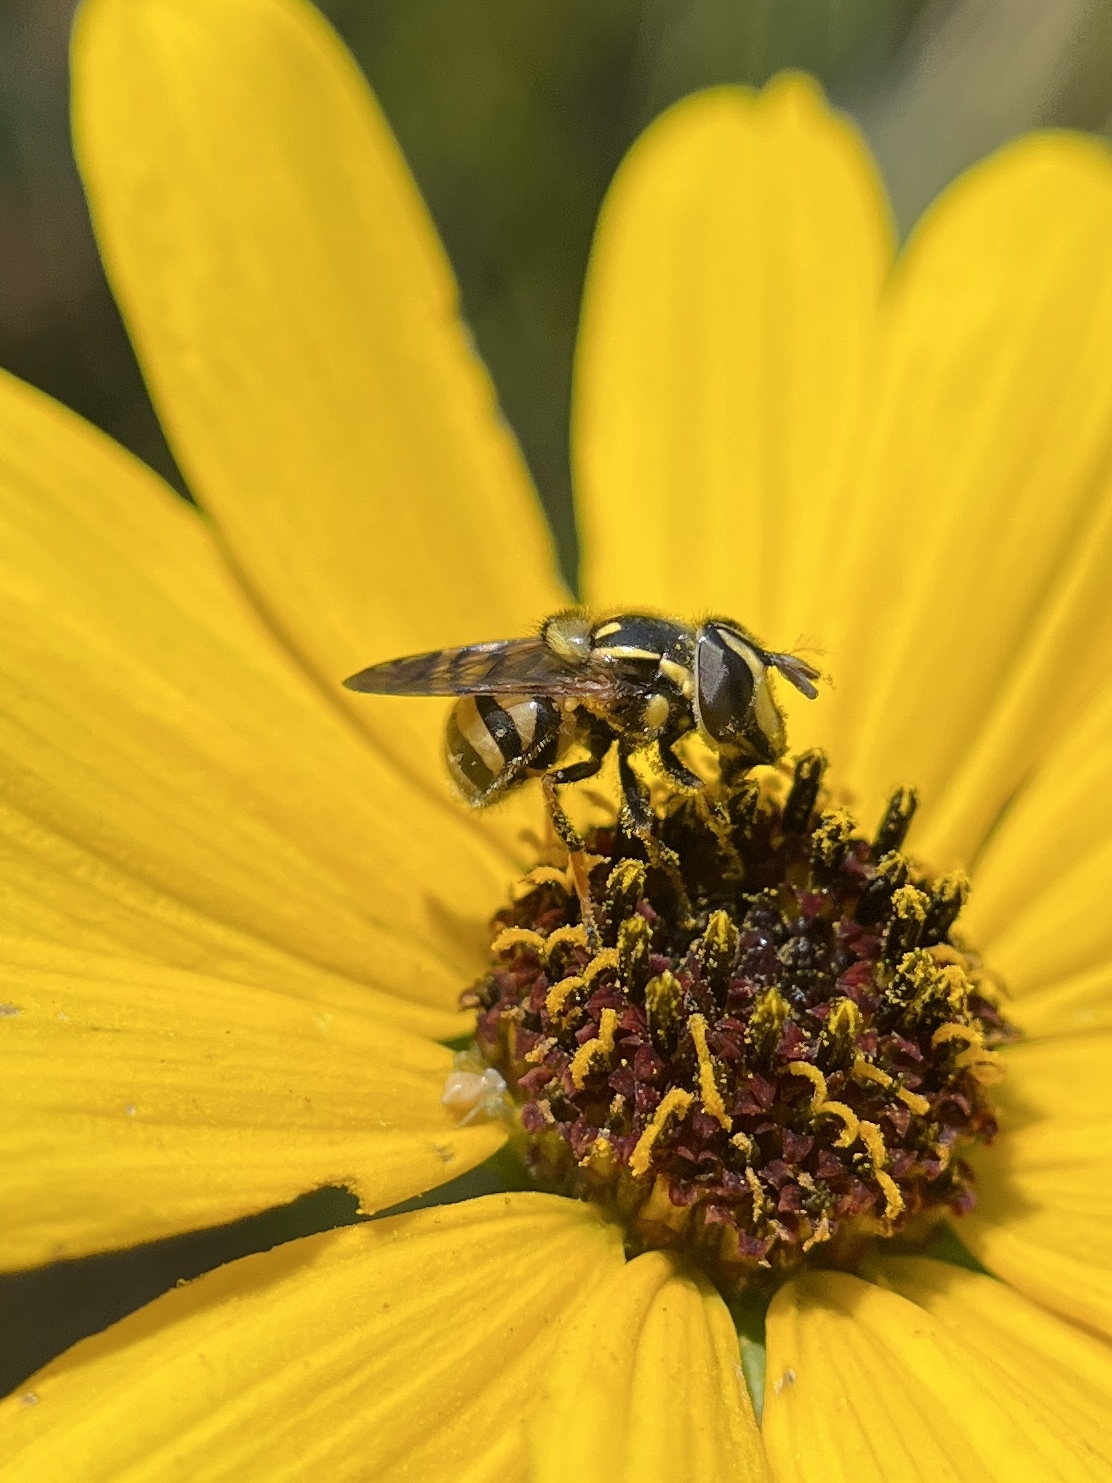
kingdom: Animalia
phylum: Arthropoda
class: Insecta
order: Diptera
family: Syrphidae
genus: Copestylum
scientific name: Copestylum vittatum
